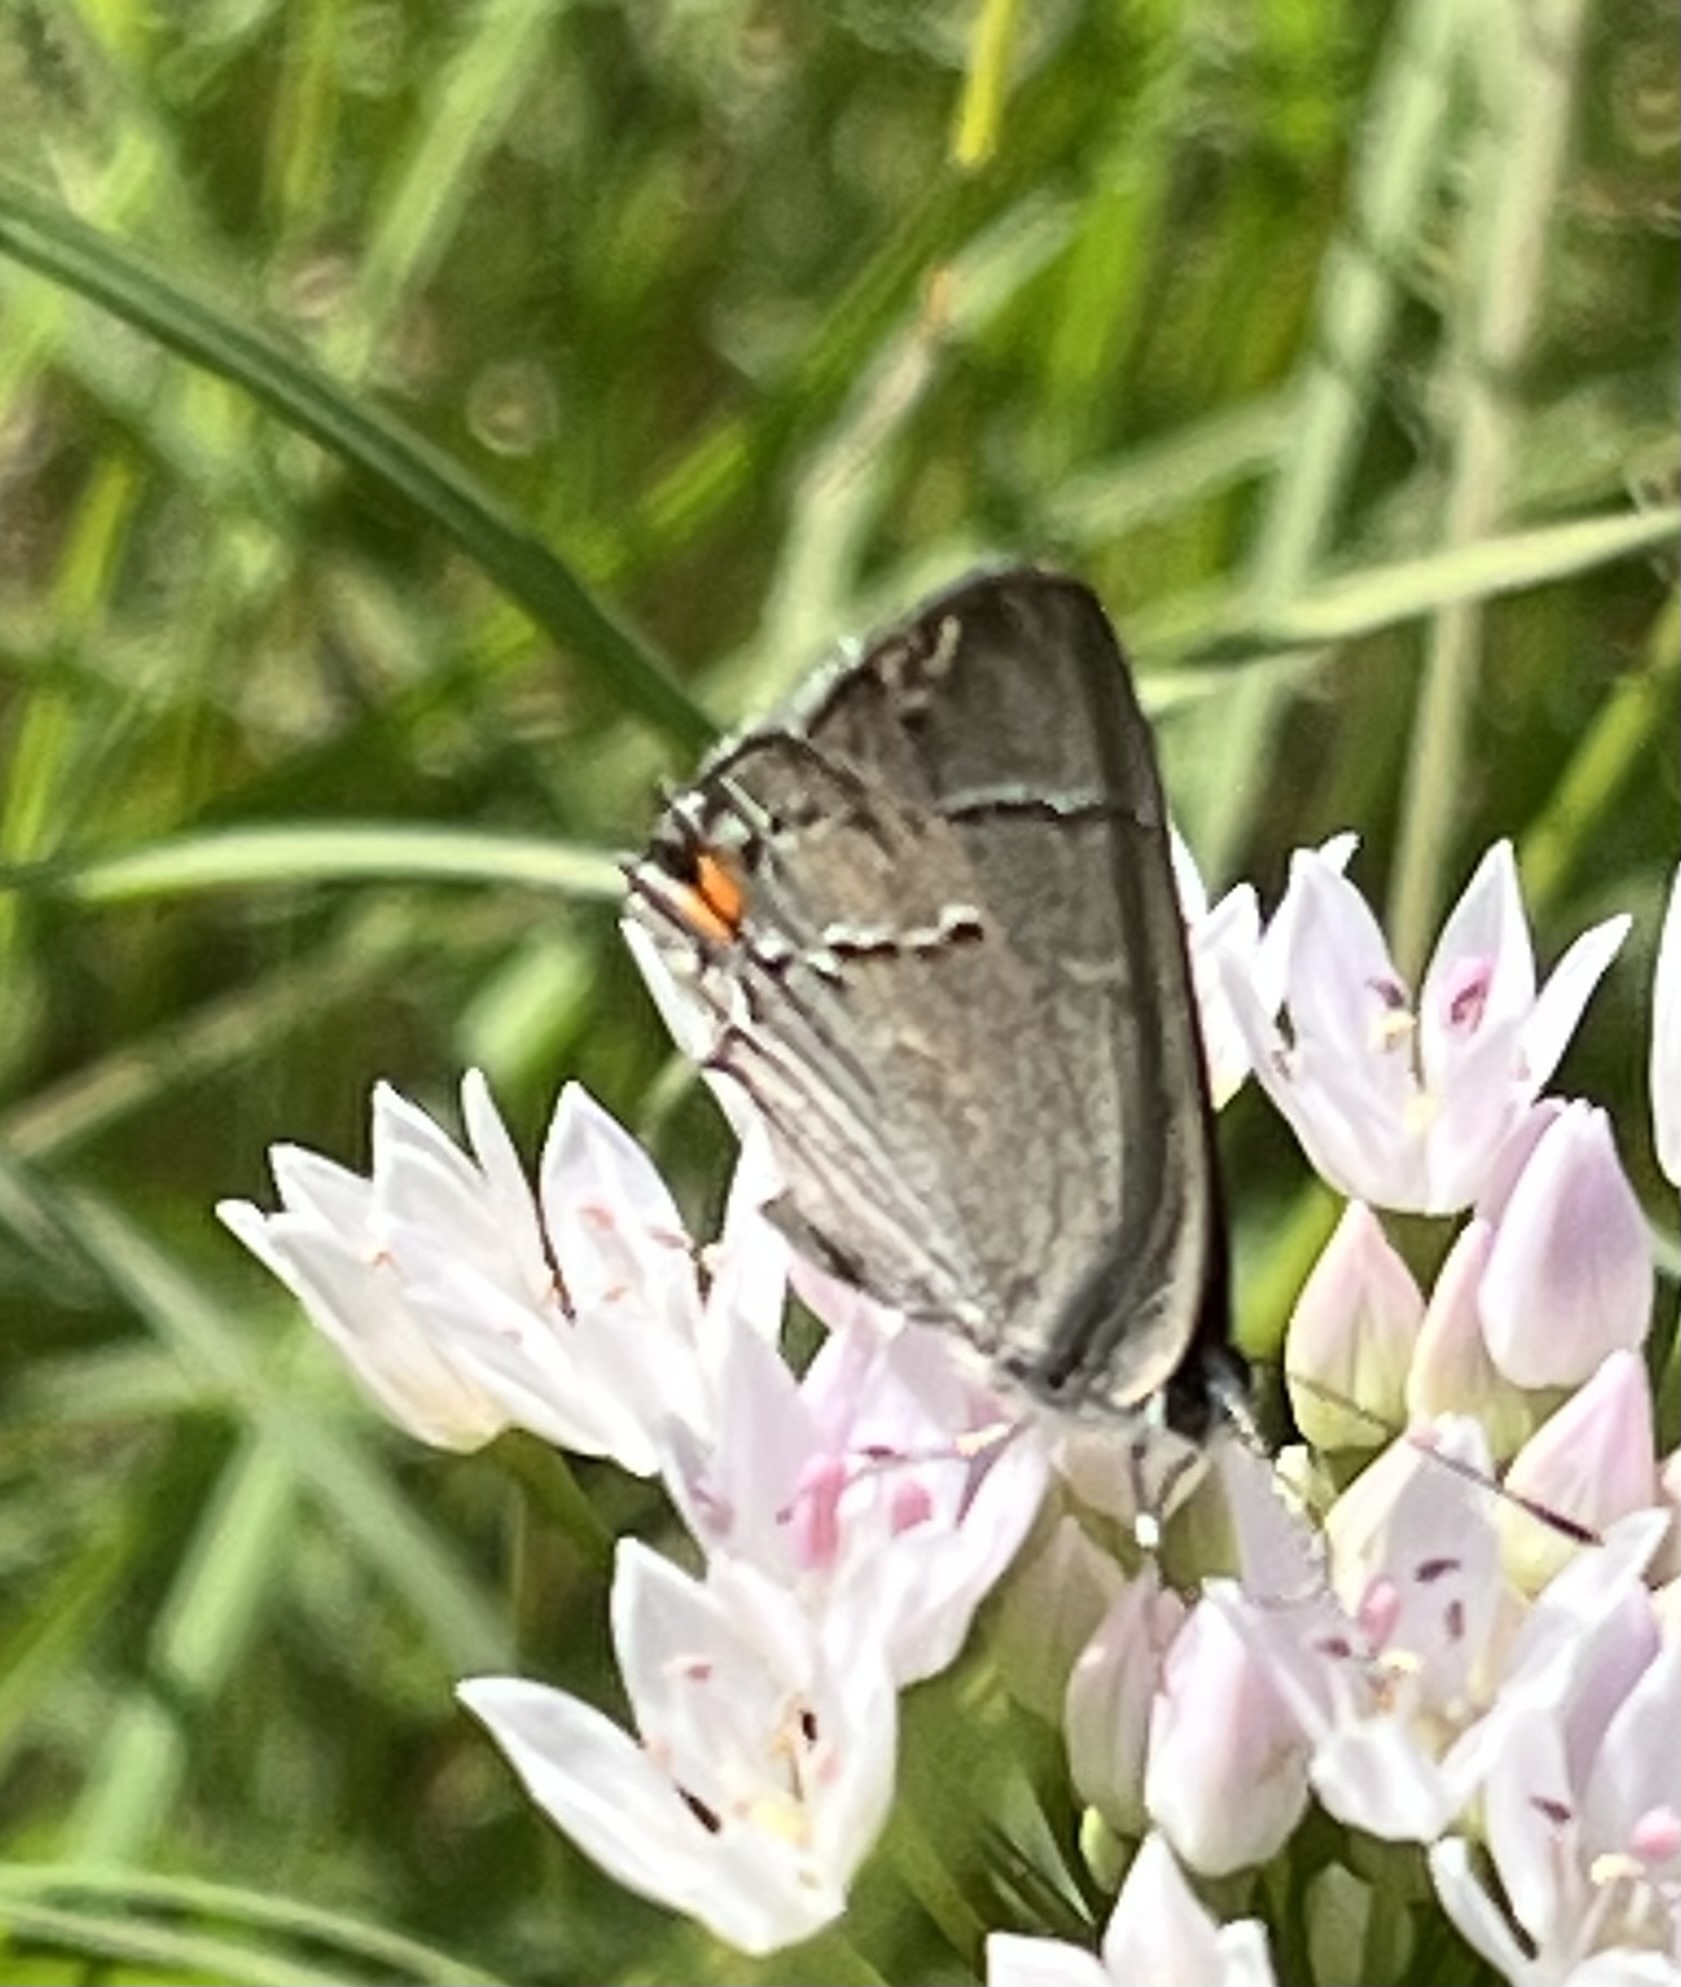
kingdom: Animalia
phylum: Arthropoda
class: Insecta
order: Lepidoptera
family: Lycaenidae
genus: Strymon
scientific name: Strymon melinus
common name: Gray hairstreak
